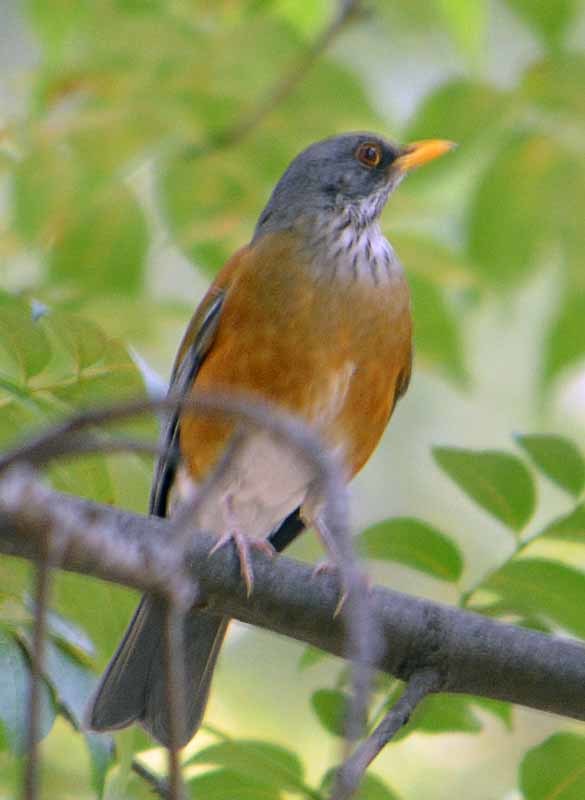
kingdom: Animalia
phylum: Chordata
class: Aves
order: Passeriformes
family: Turdidae
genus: Turdus
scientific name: Turdus rufopalliatus
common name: Rufous-backed robin
